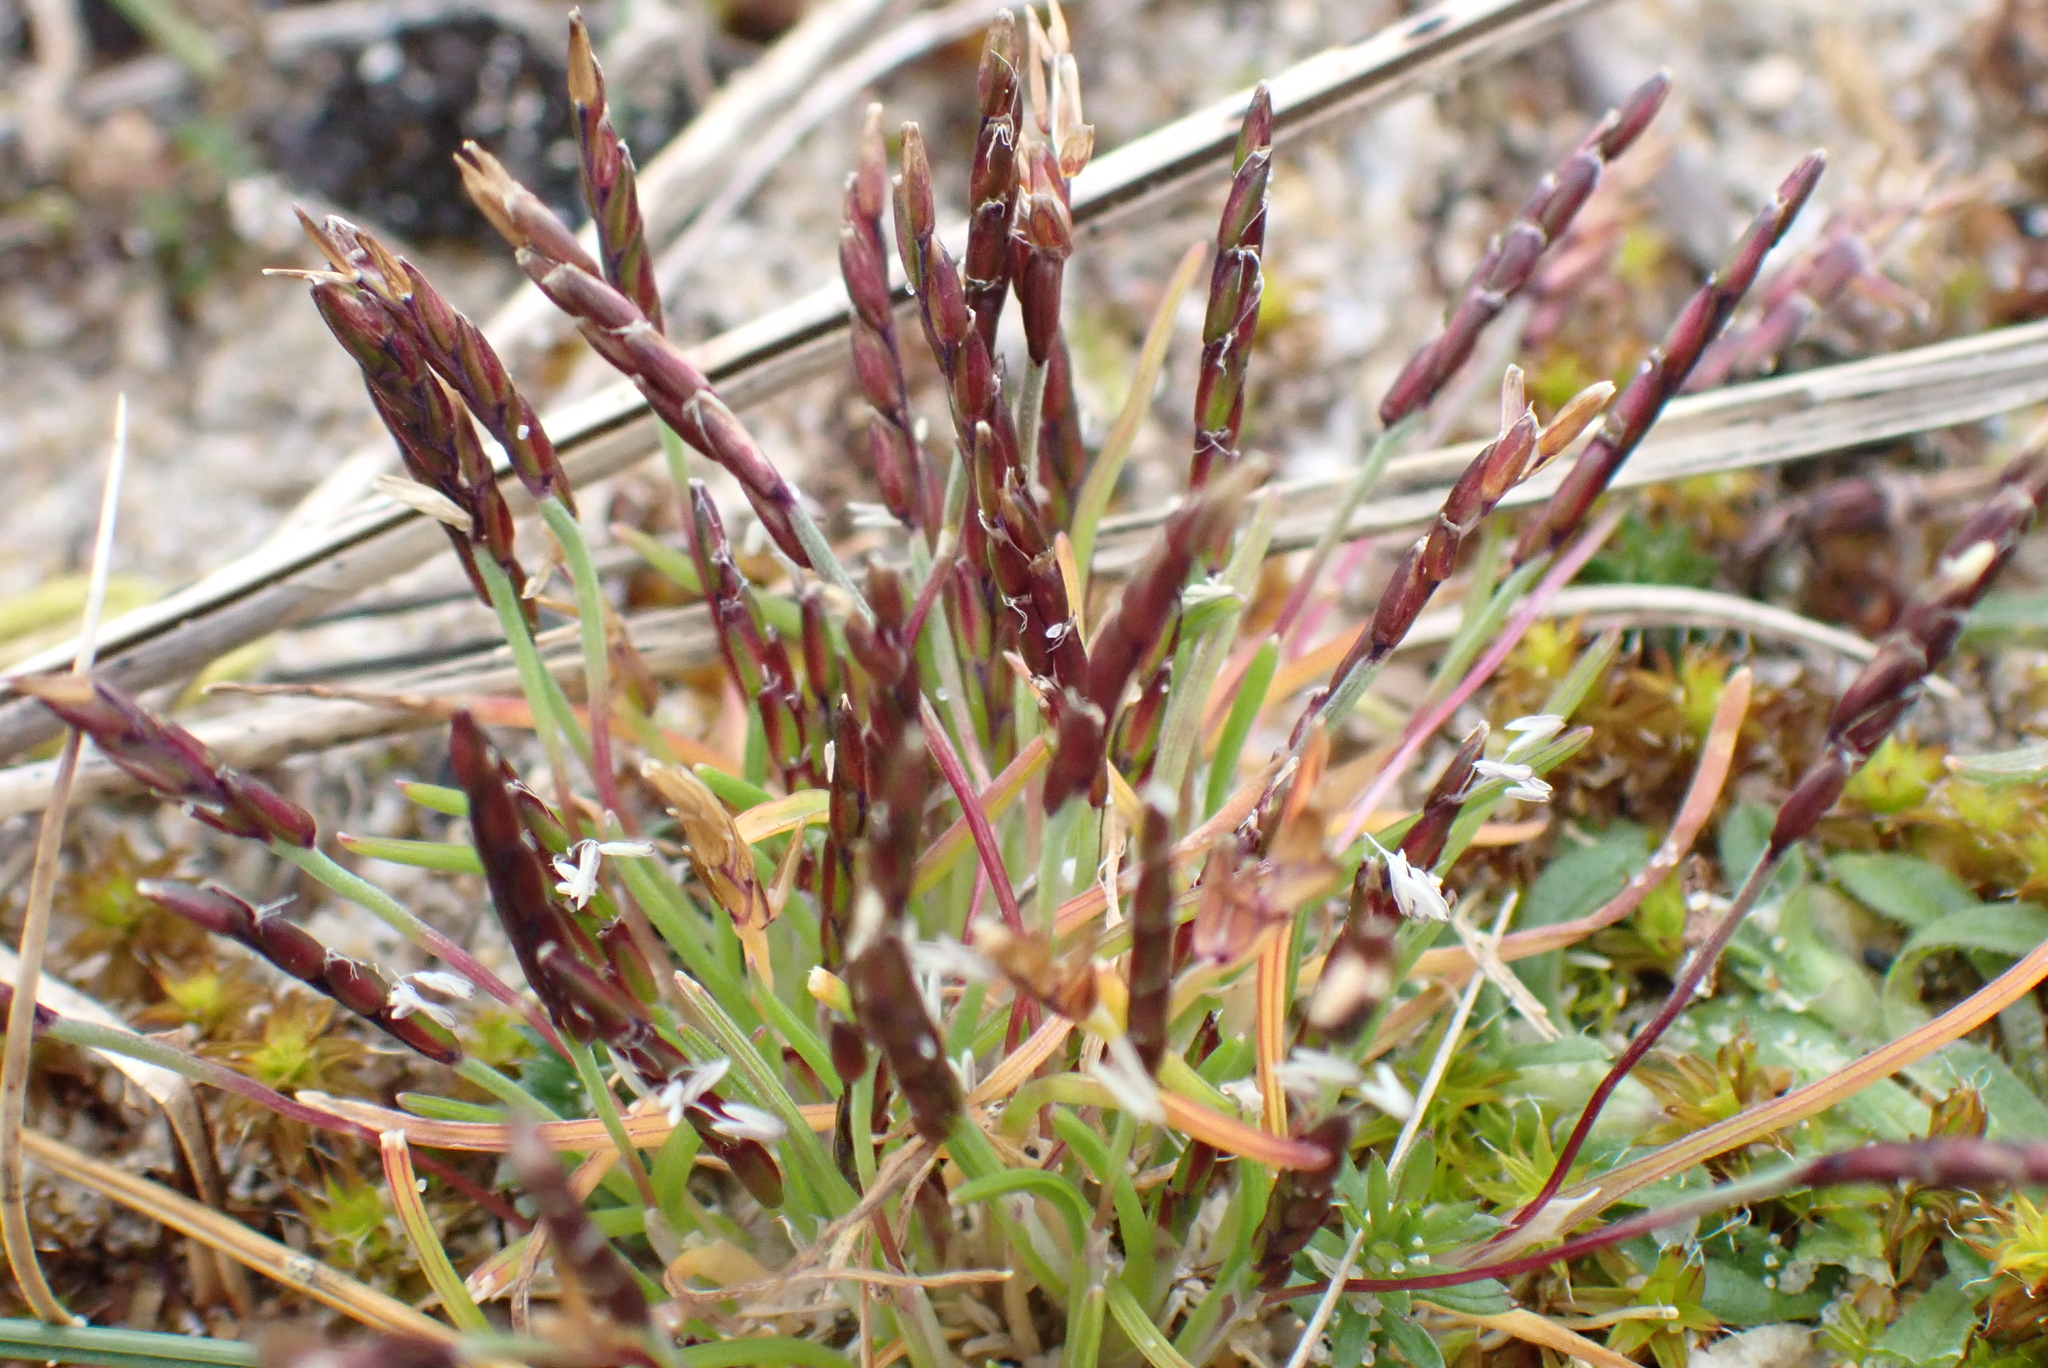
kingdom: Plantae
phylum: Tracheophyta
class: Liliopsida
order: Poales
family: Poaceae
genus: Mibora
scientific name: Mibora minima
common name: Early sand-grass
